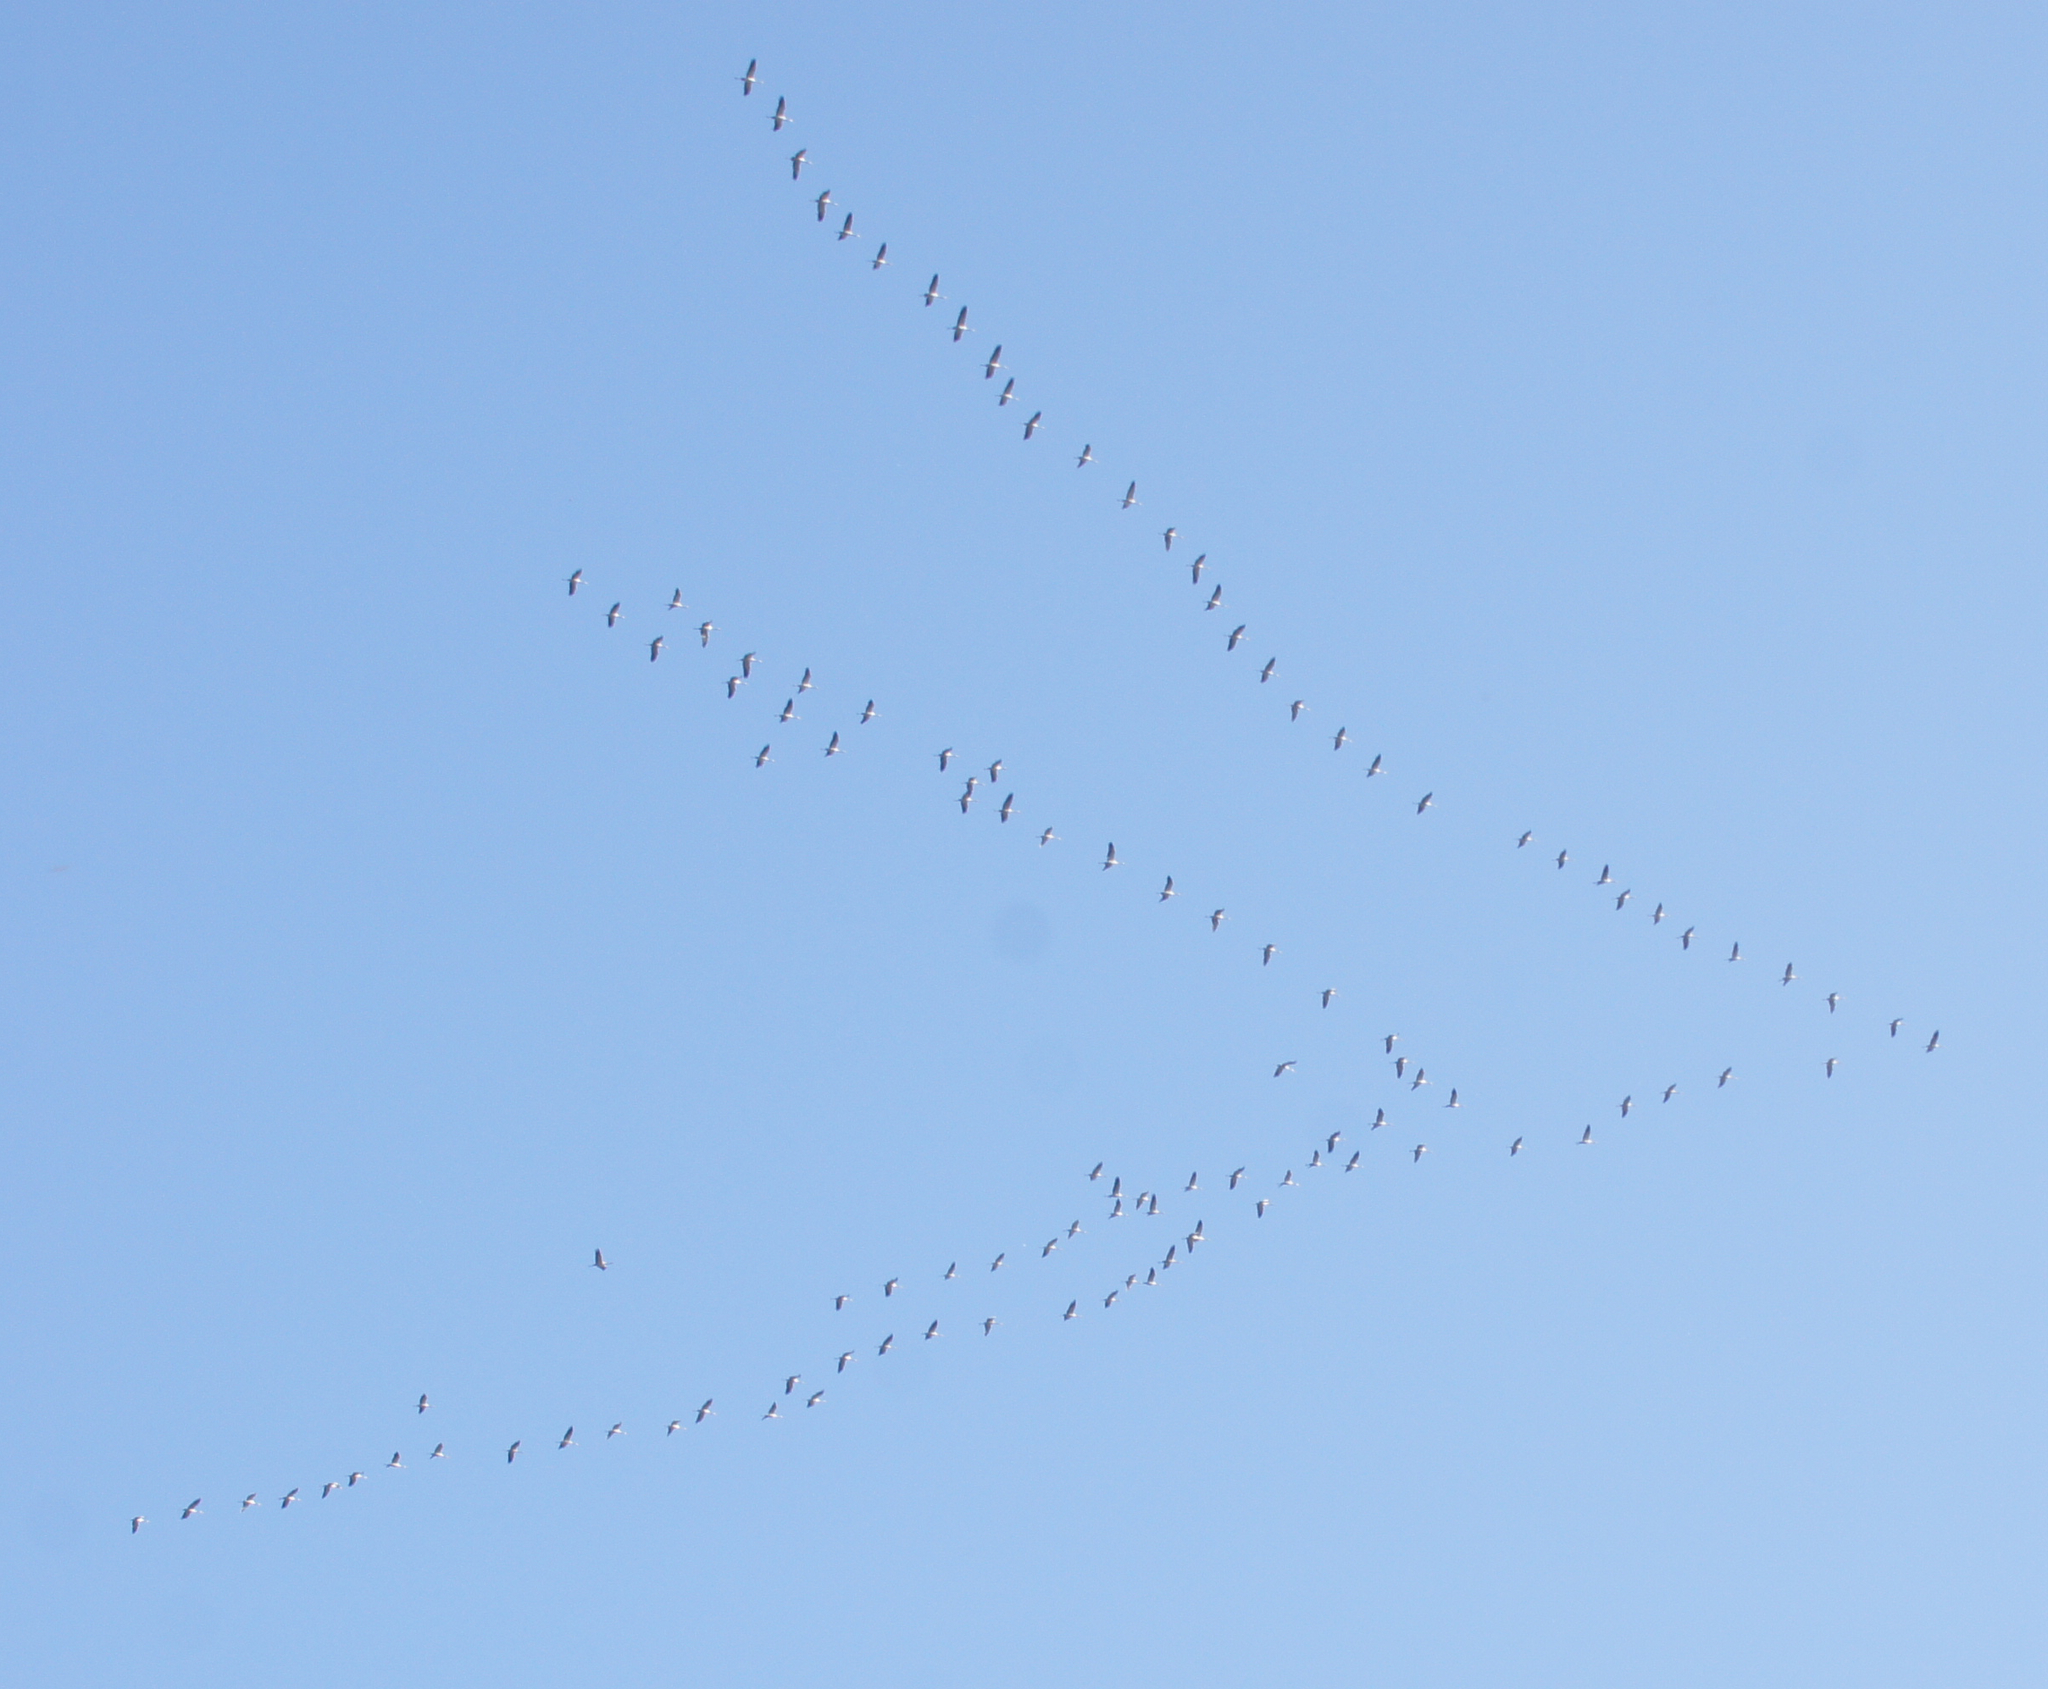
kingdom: Animalia
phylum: Chordata
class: Aves
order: Gruiformes
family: Gruidae
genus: Grus
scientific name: Grus grus
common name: Common crane
